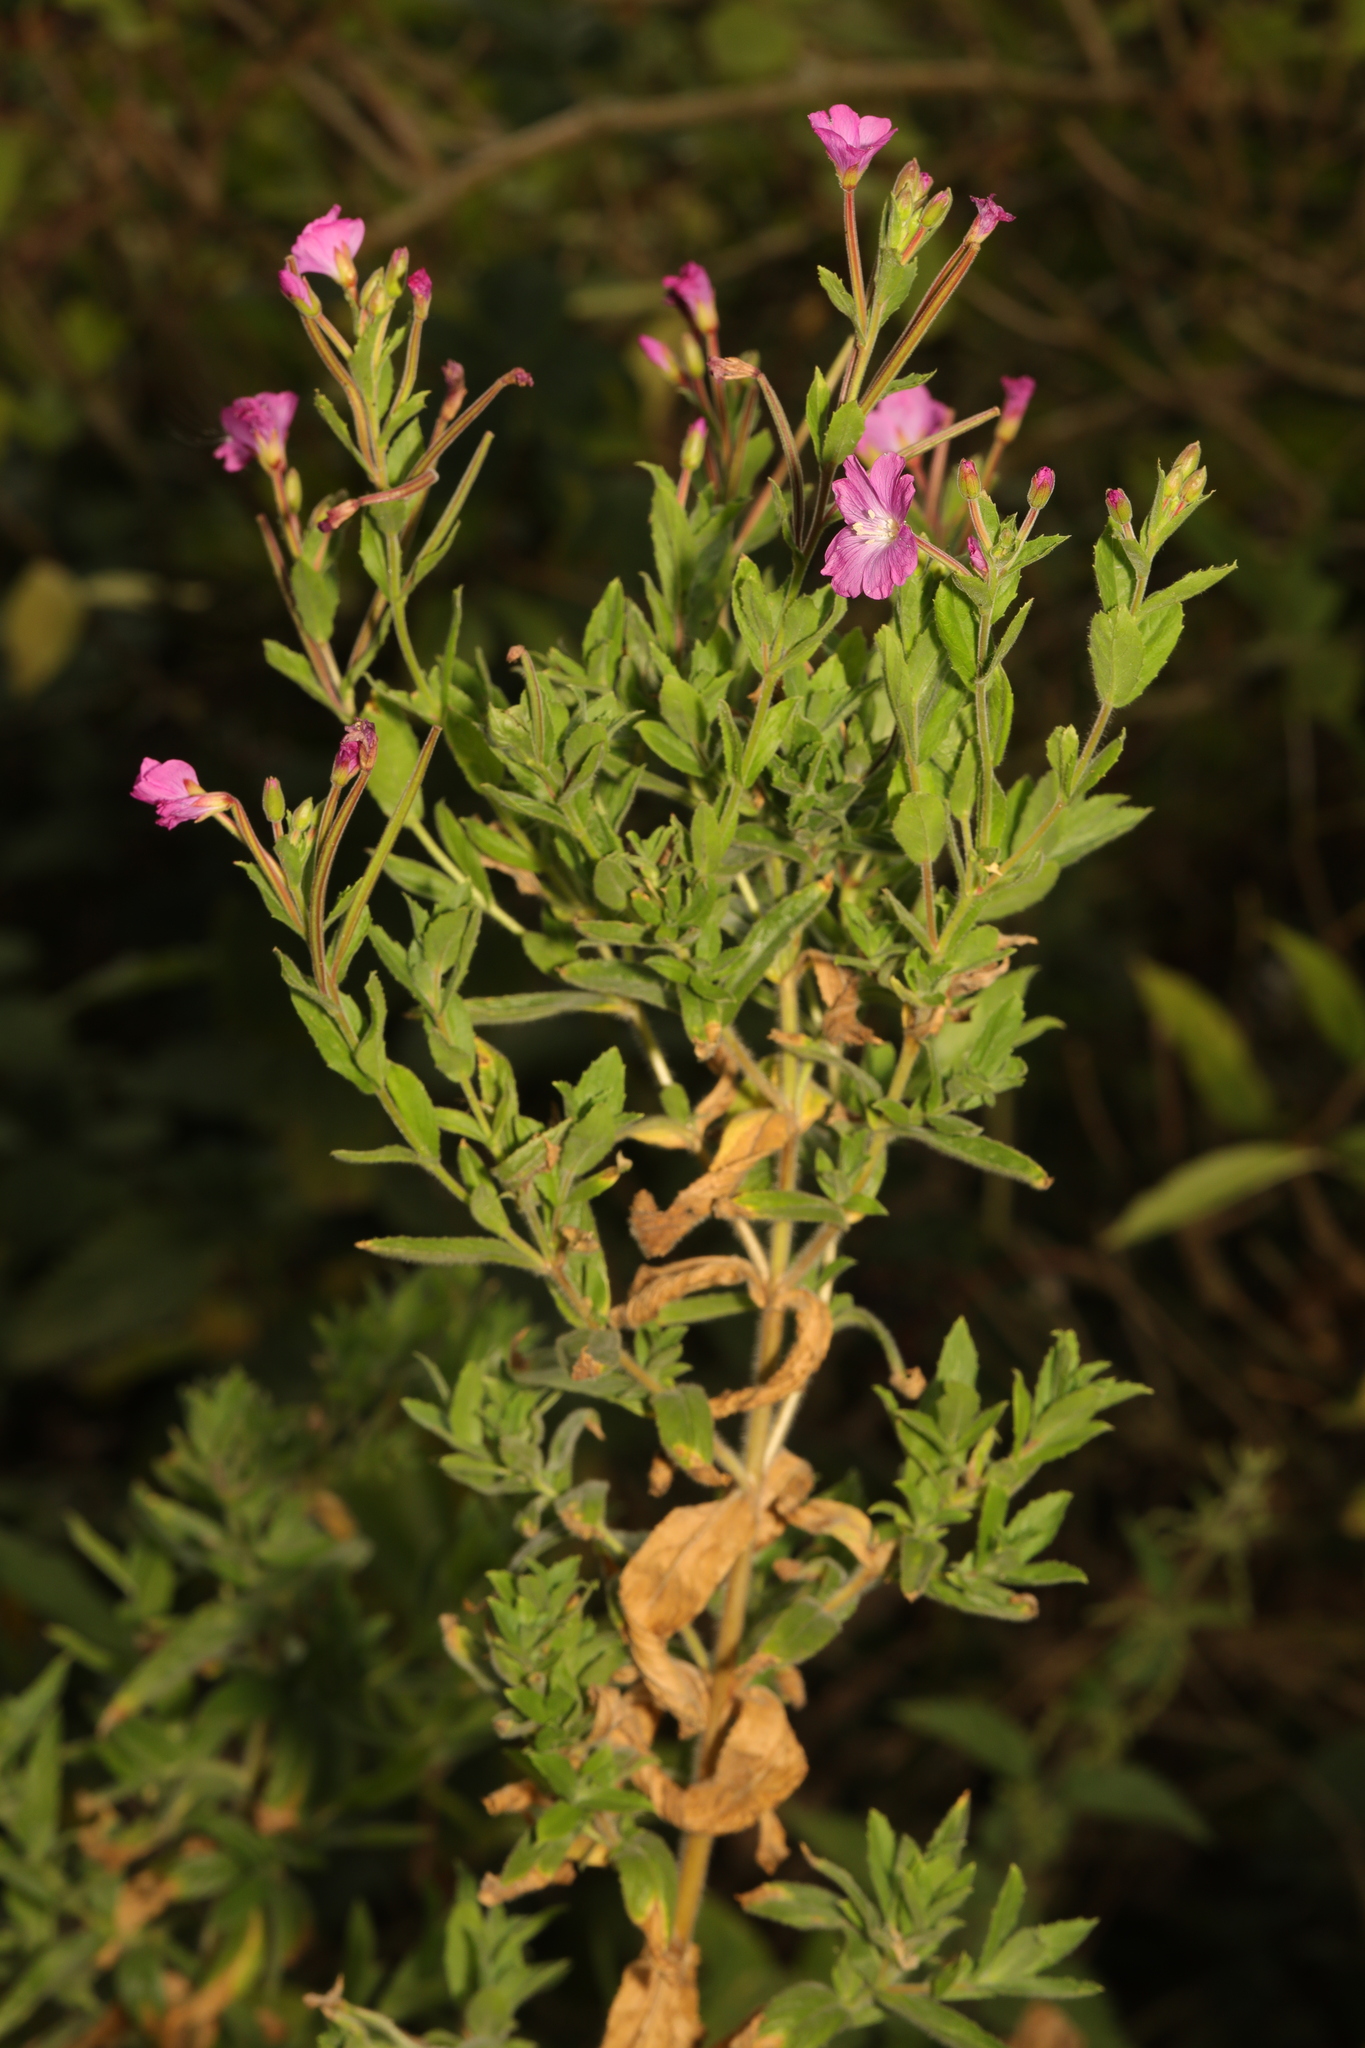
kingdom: Plantae
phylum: Tracheophyta
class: Magnoliopsida
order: Myrtales
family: Onagraceae
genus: Epilobium
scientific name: Epilobium hirsutum
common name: Great willowherb
